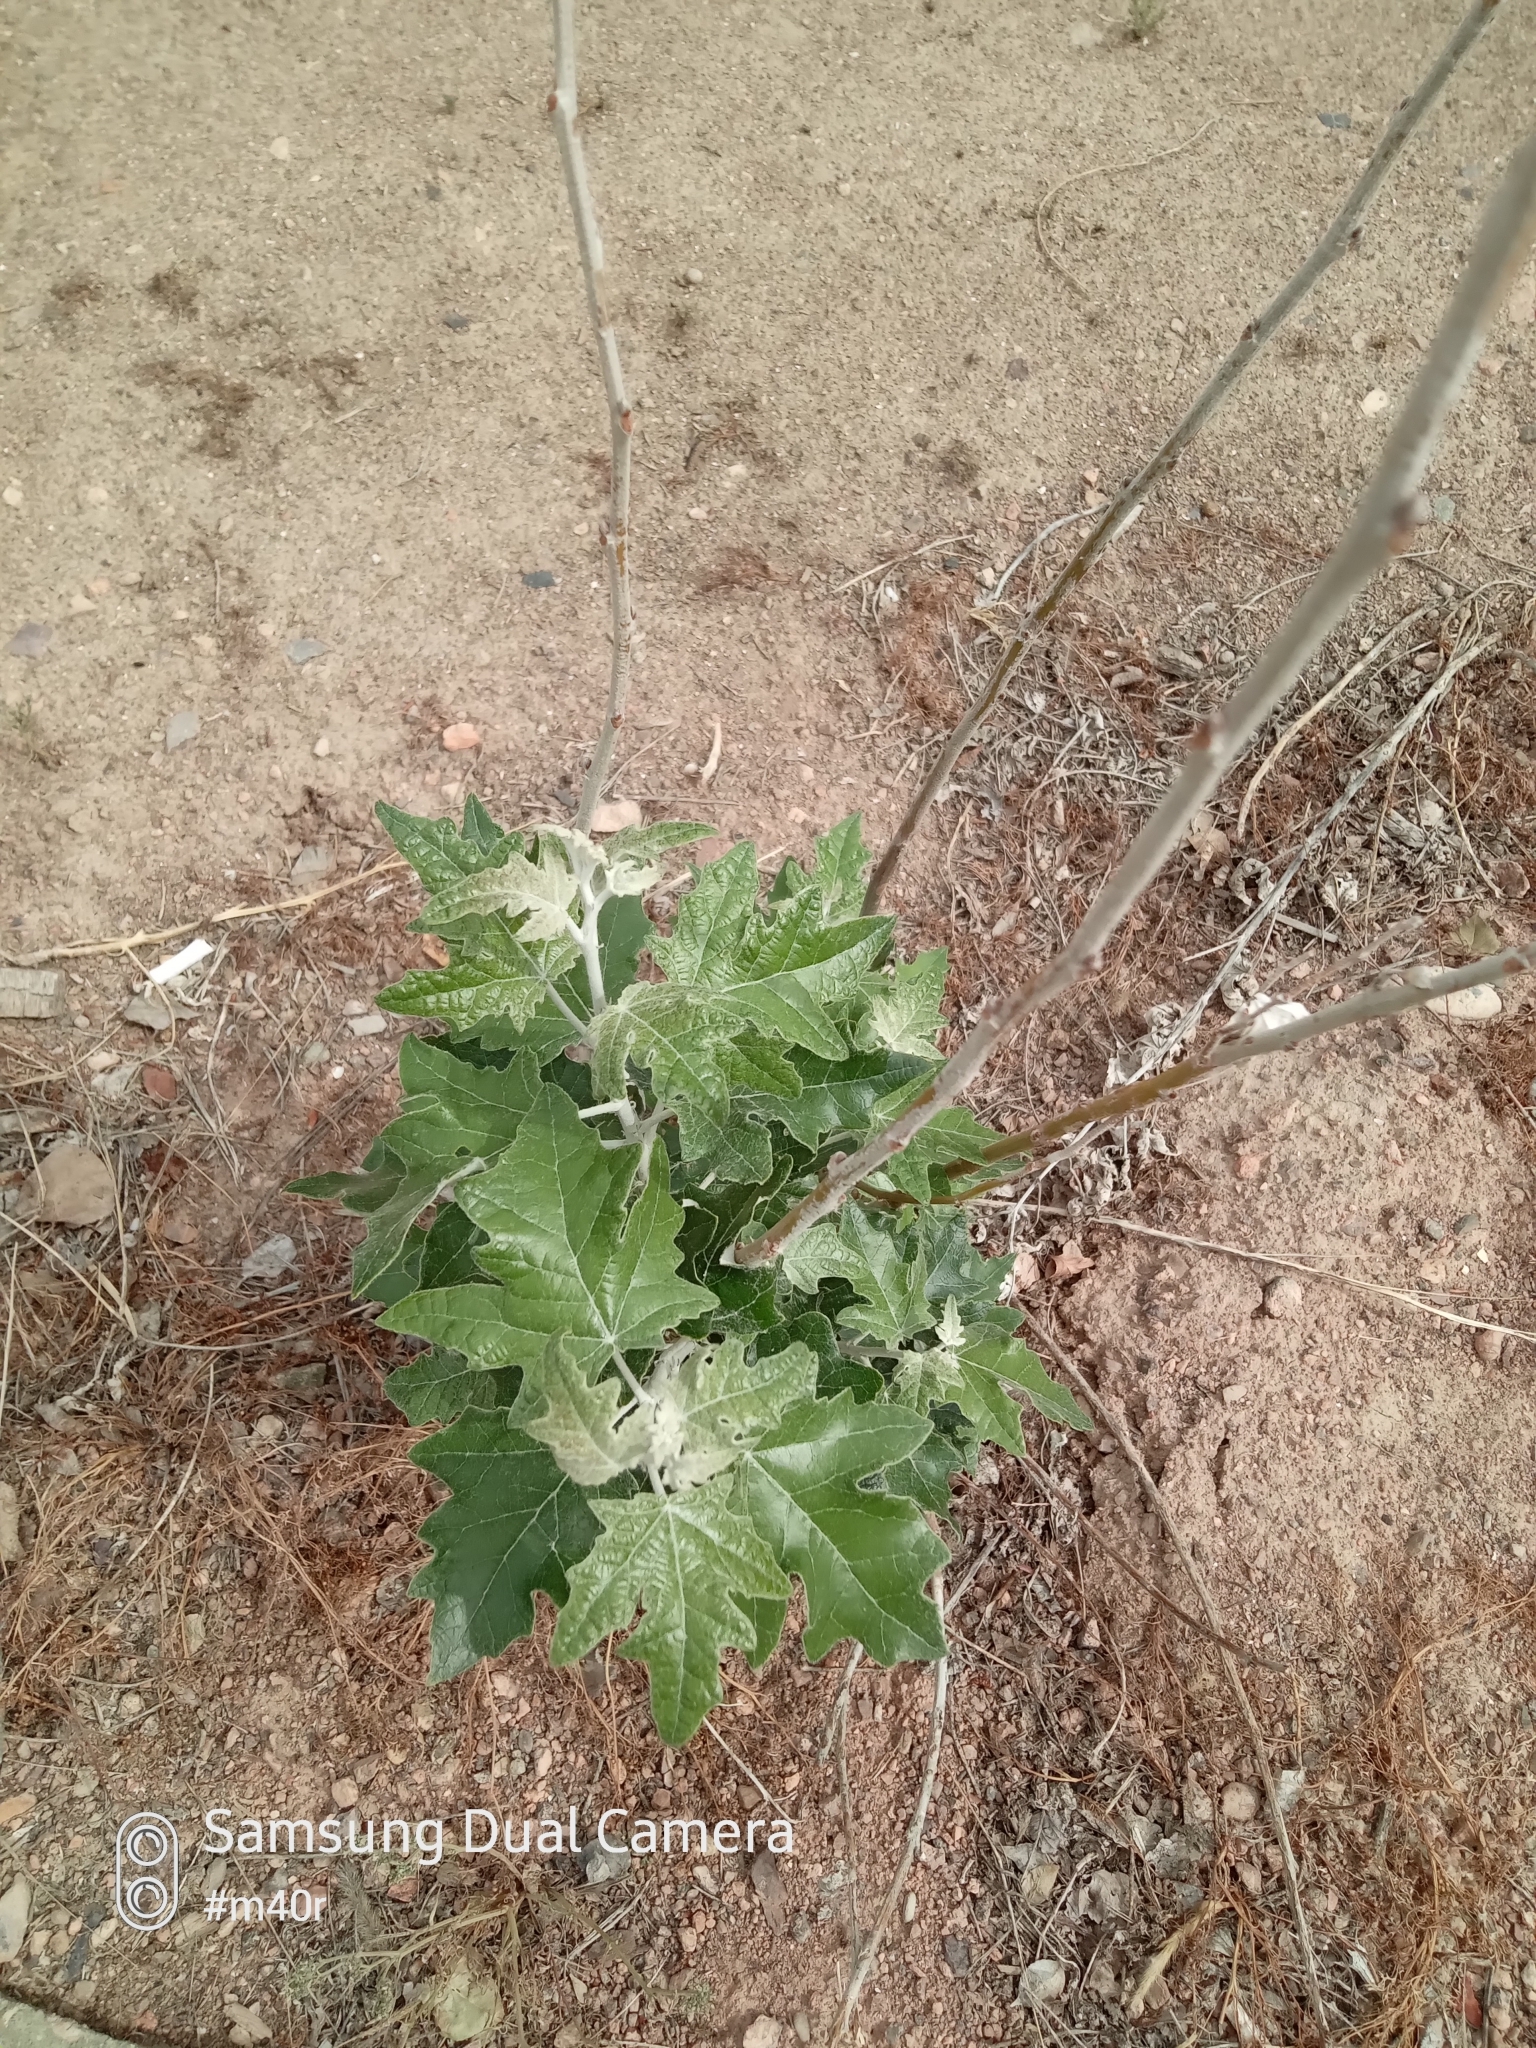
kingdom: Plantae
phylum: Tracheophyta
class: Magnoliopsida
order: Malpighiales
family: Salicaceae
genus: Populus
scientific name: Populus alba
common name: White poplar
